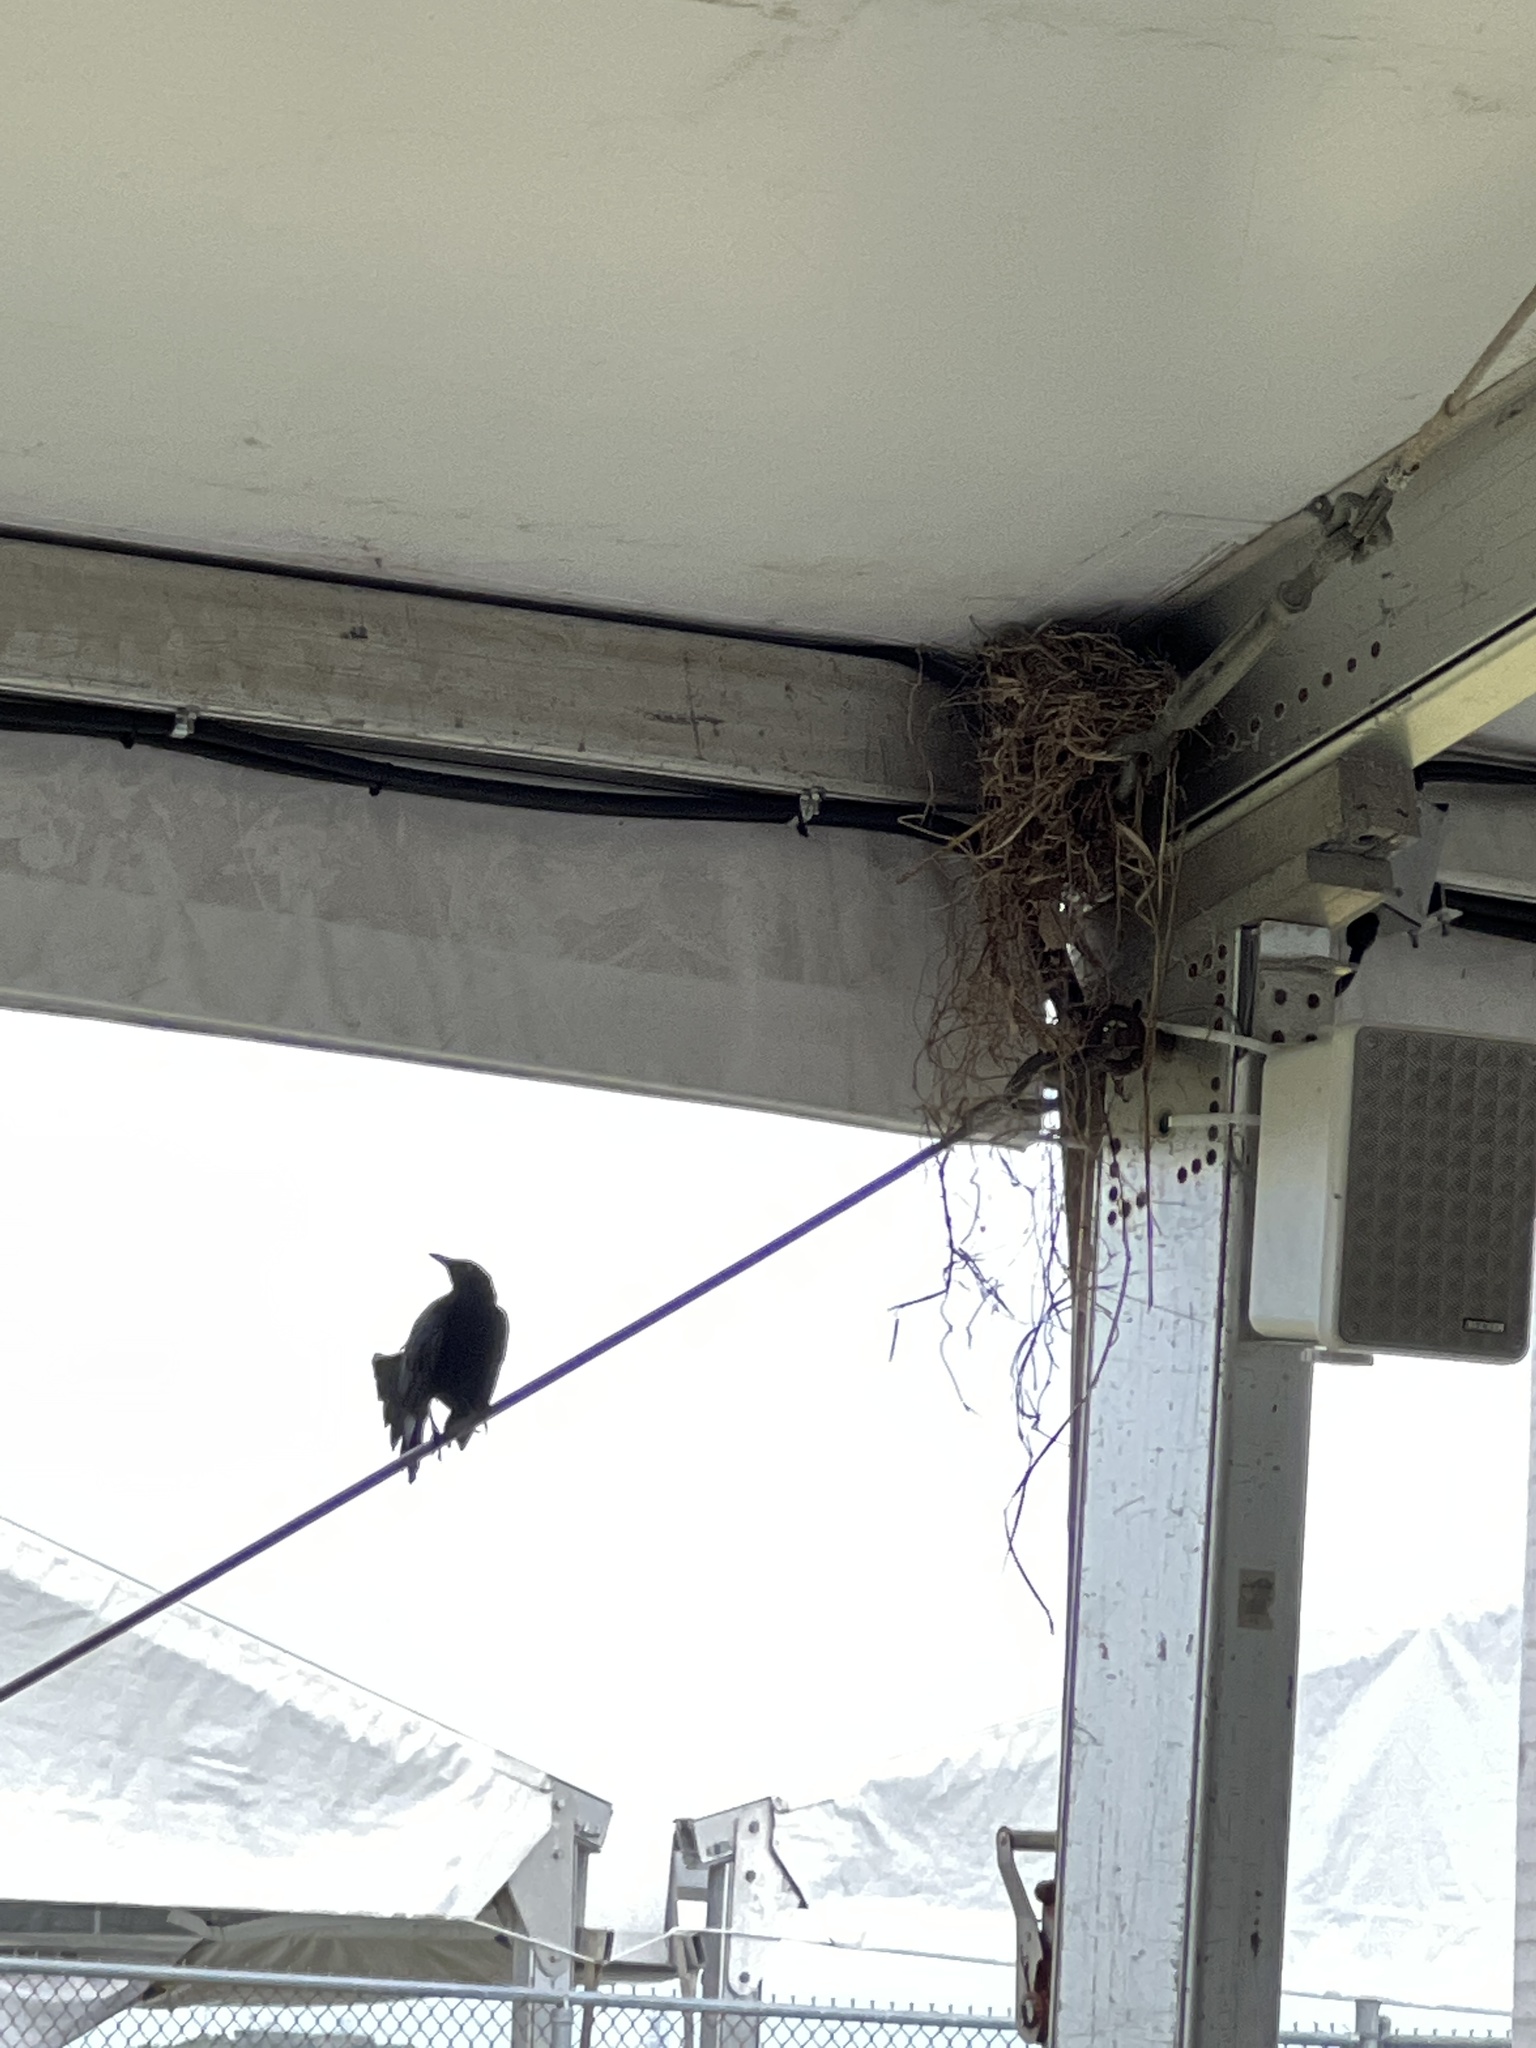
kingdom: Animalia
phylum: Chordata
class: Aves
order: Passeriformes
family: Icteridae
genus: Quiscalus
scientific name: Quiscalus niger
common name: Greater antillean grackle
